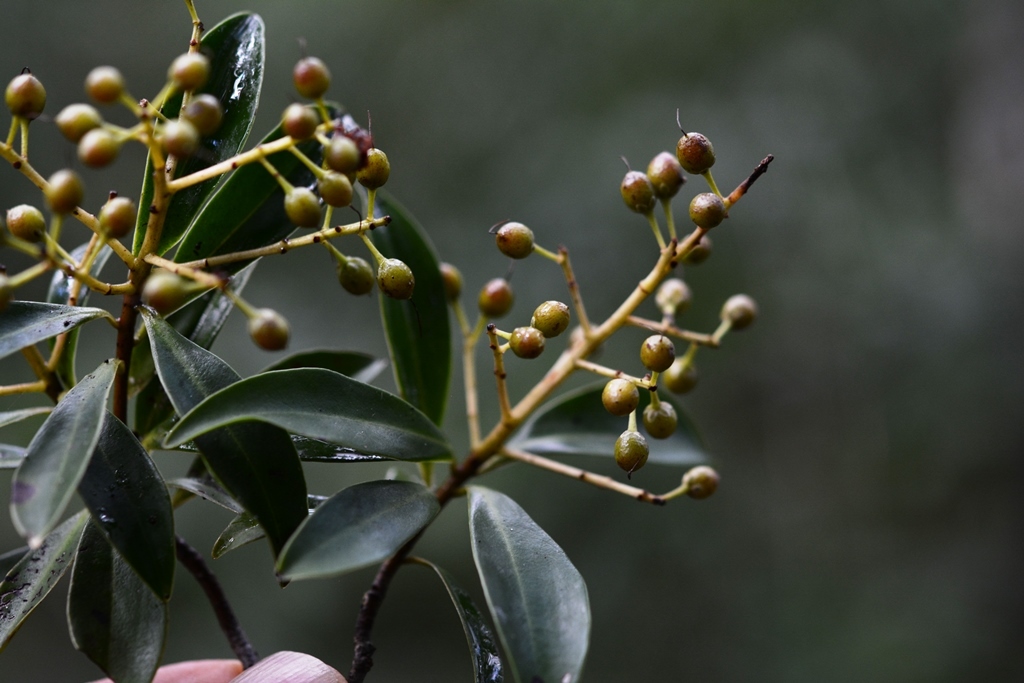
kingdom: Plantae
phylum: Tracheophyta
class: Magnoliopsida
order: Ericales
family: Primulaceae
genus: Ardisia
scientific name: Ardisia escallonioides
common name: Island marlberry
